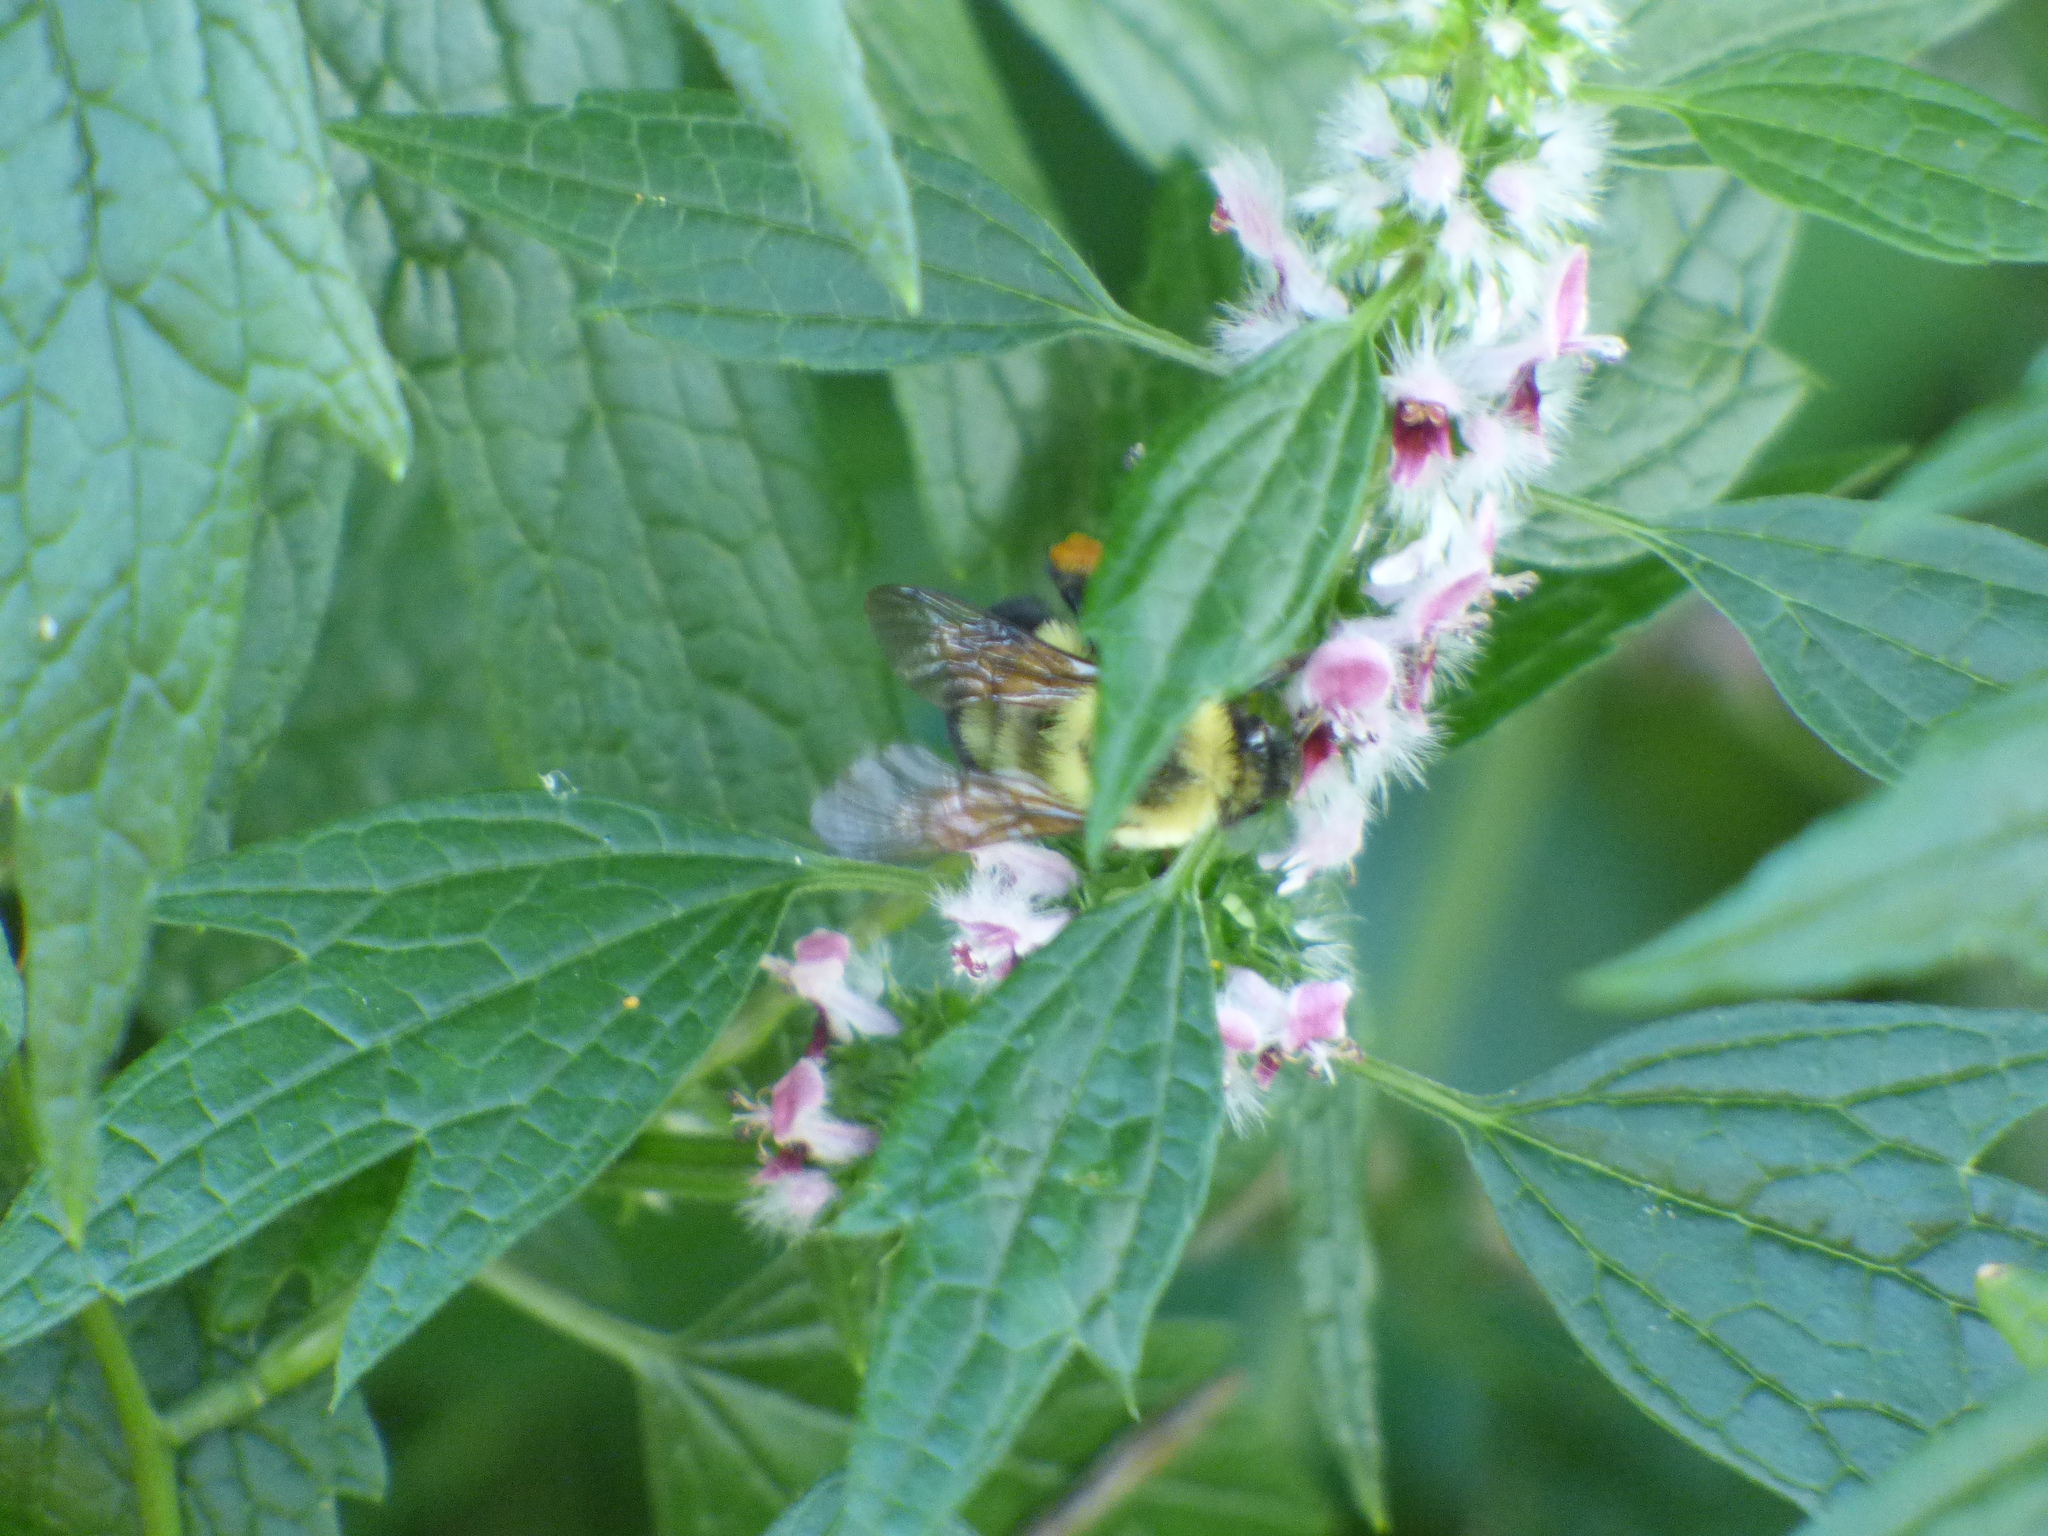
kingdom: Animalia
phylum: Arthropoda
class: Insecta
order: Hymenoptera
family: Apidae
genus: Bombus
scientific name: Bombus bimaculatus
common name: Two-spotted bumble bee
